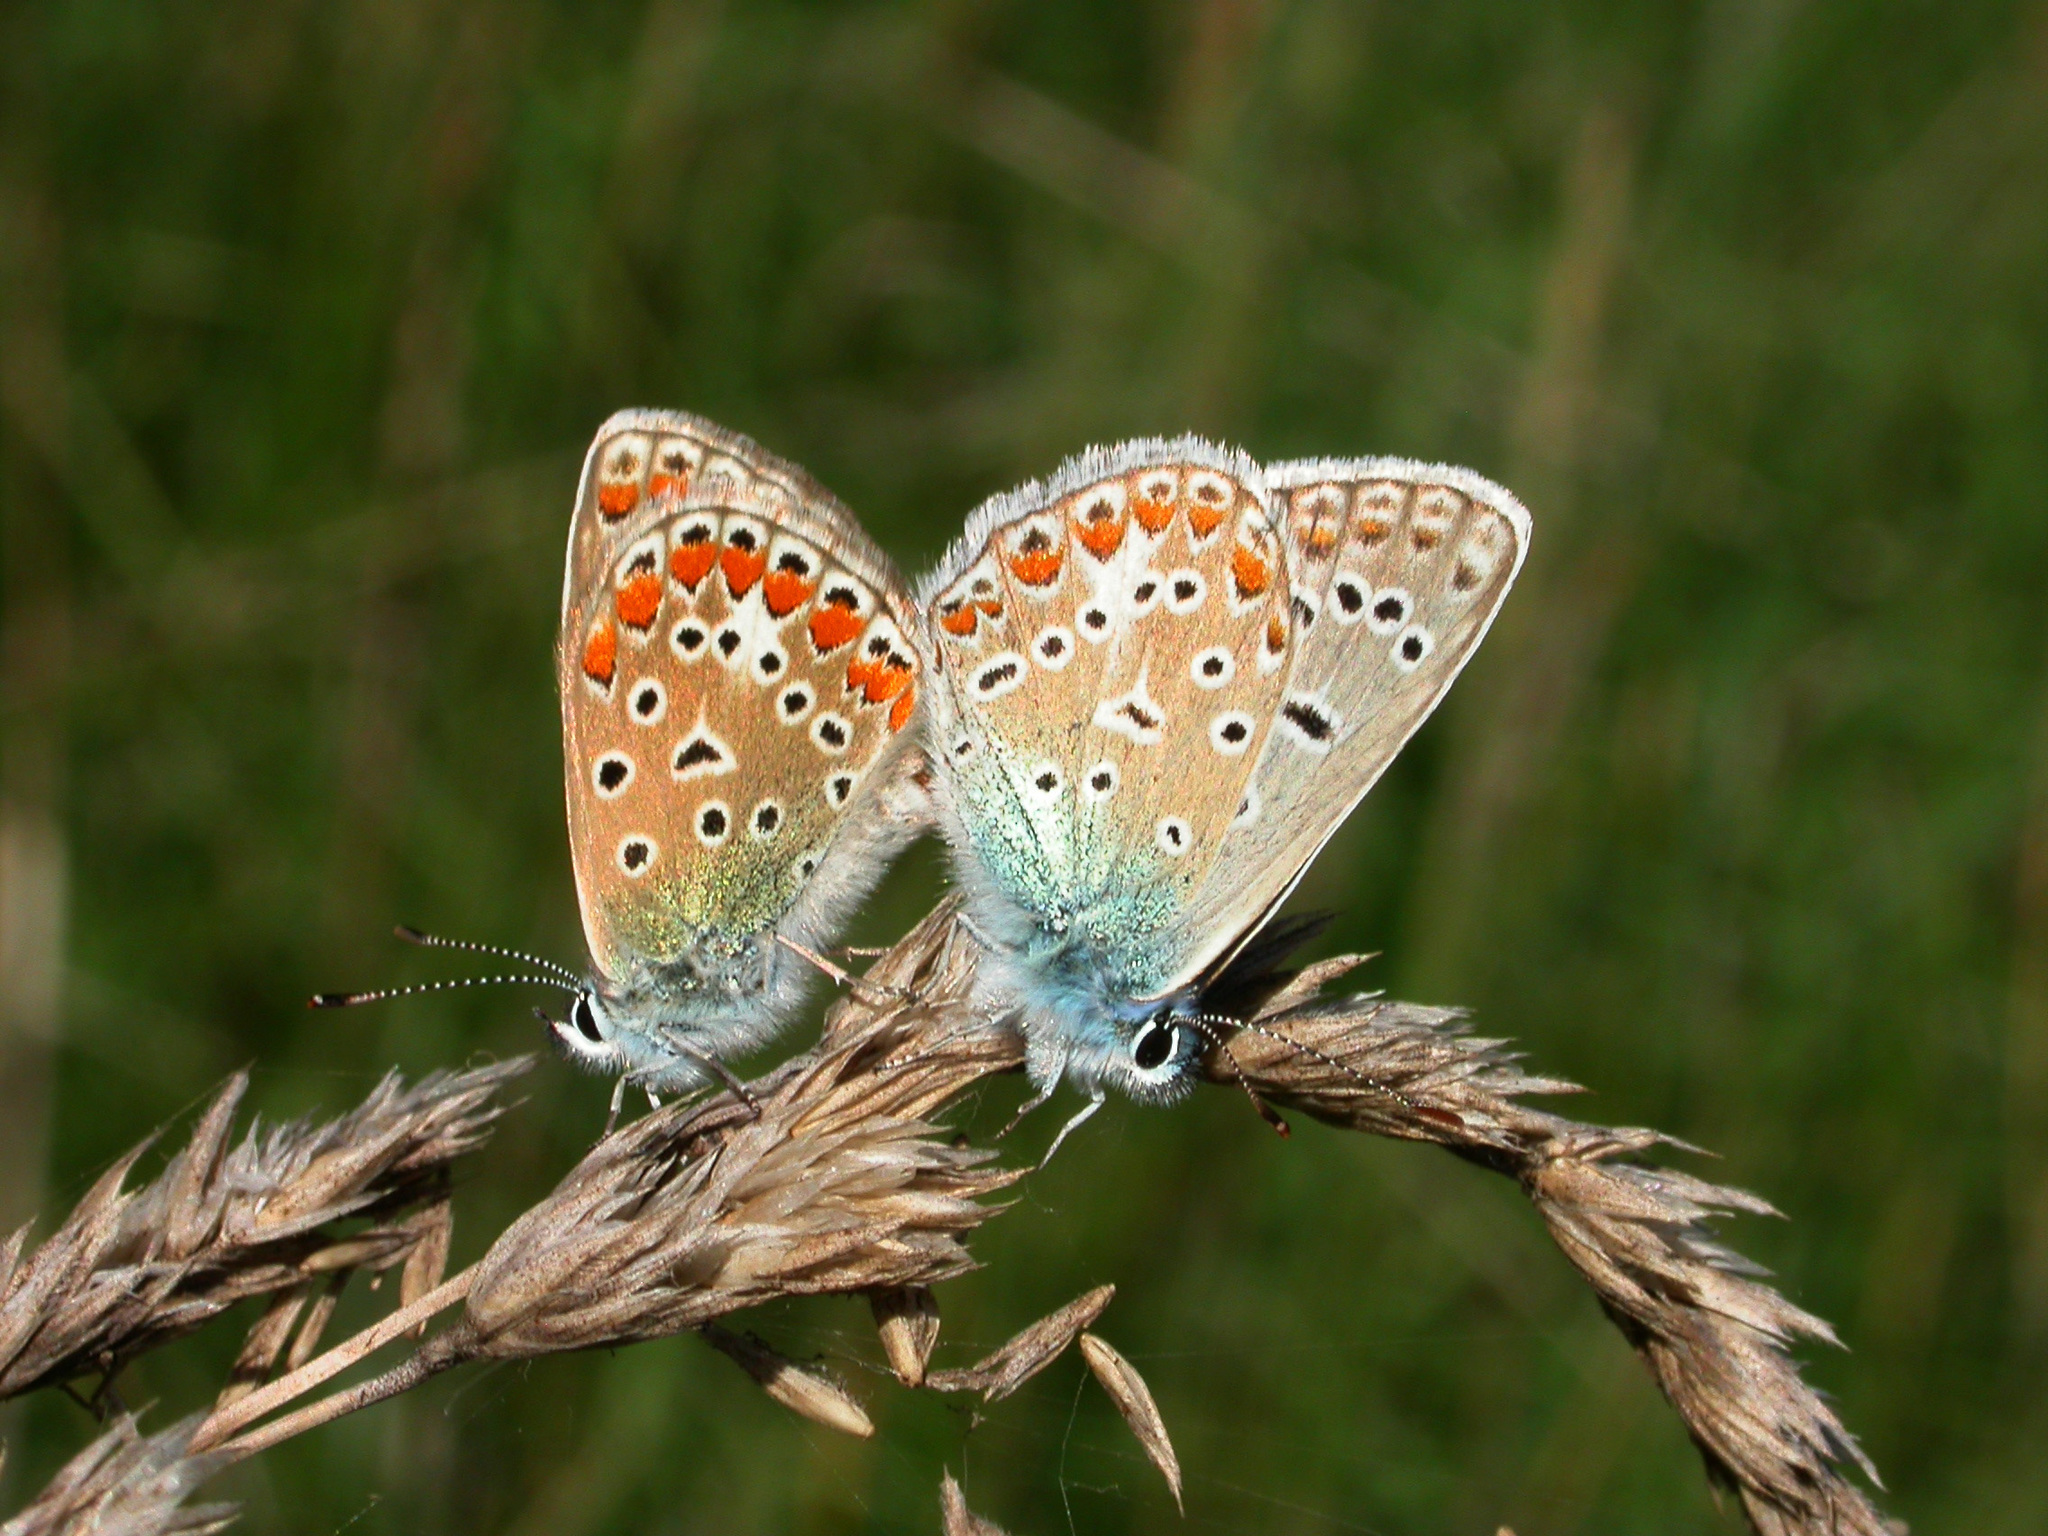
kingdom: Animalia
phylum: Arthropoda
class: Insecta
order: Lepidoptera
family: Lycaenidae
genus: Polyommatus
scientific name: Polyommatus icarus
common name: Common blue
